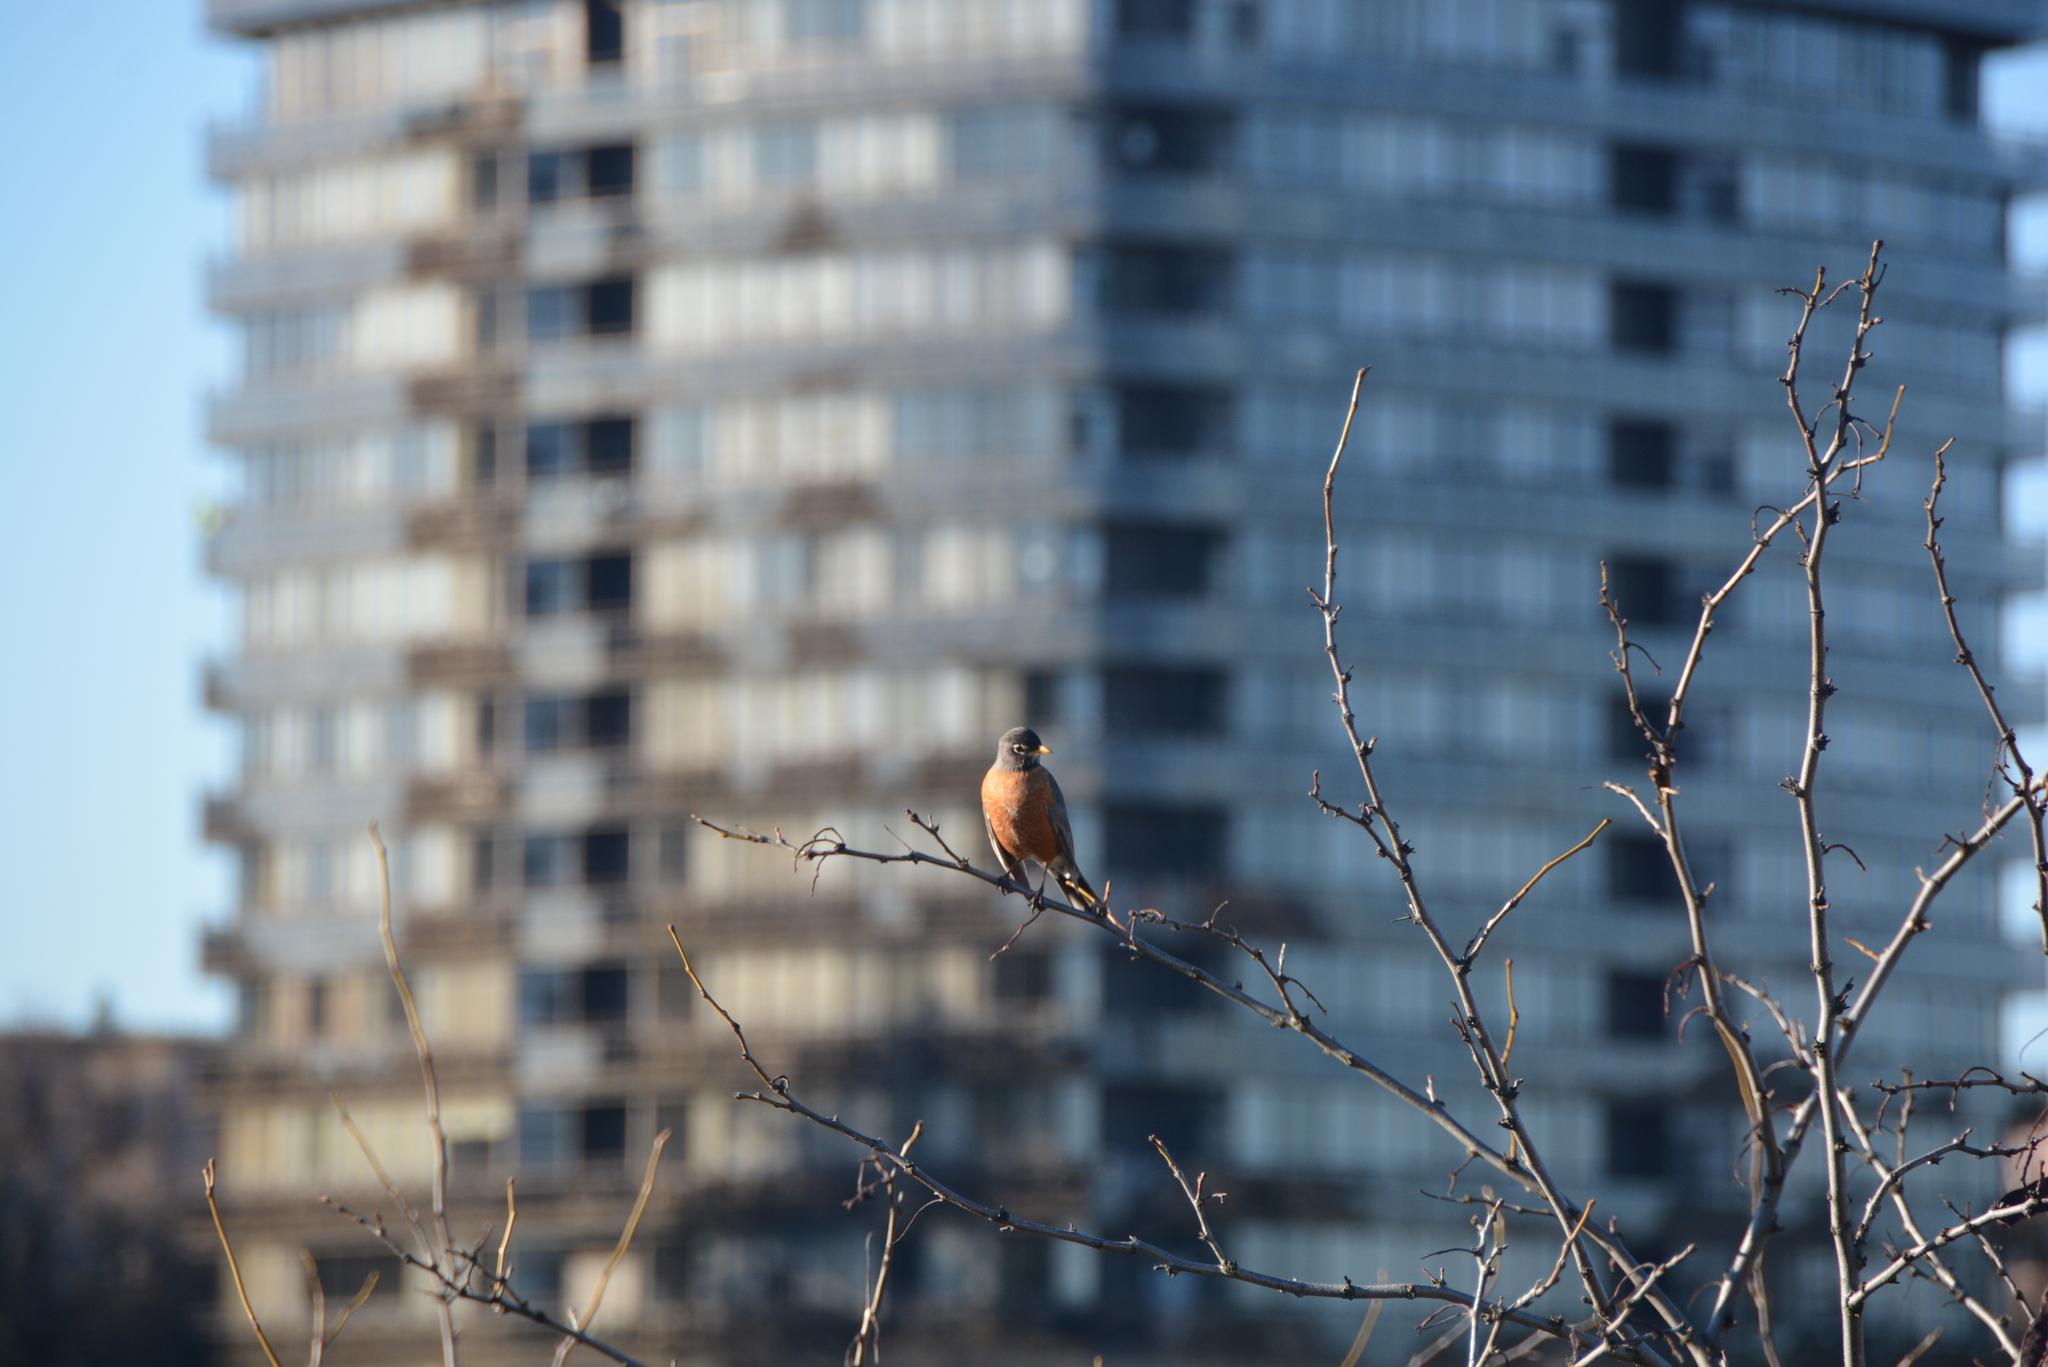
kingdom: Animalia
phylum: Chordata
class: Aves
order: Passeriformes
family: Turdidae
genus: Turdus
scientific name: Turdus migratorius
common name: American robin
